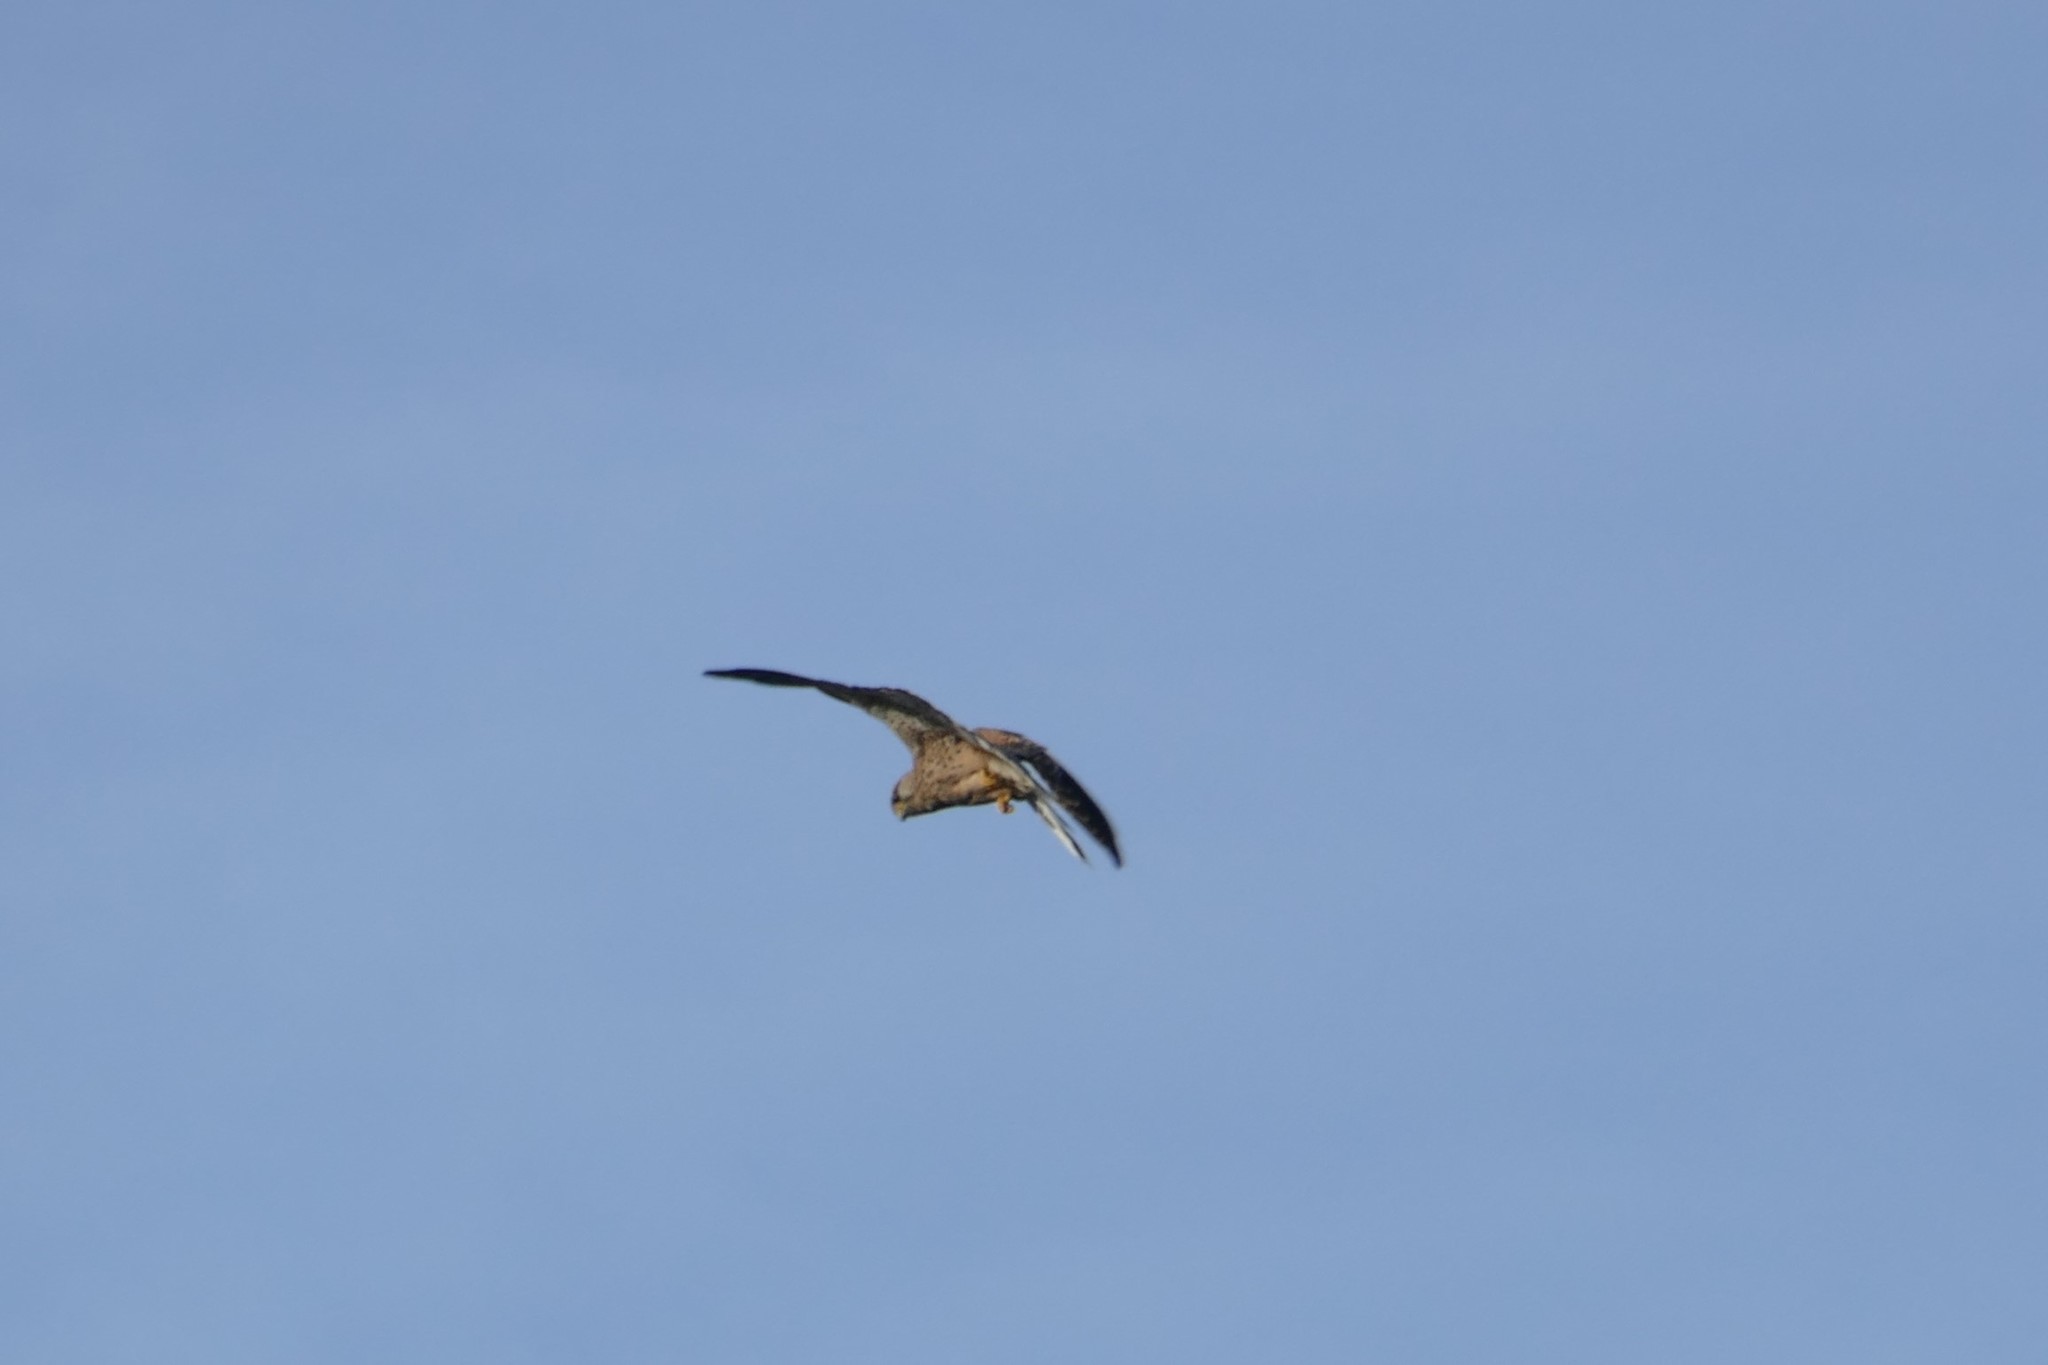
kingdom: Animalia
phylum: Chordata
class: Aves
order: Falconiformes
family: Falconidae
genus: Falco
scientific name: Falco tinnunculus
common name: Common kestrel
